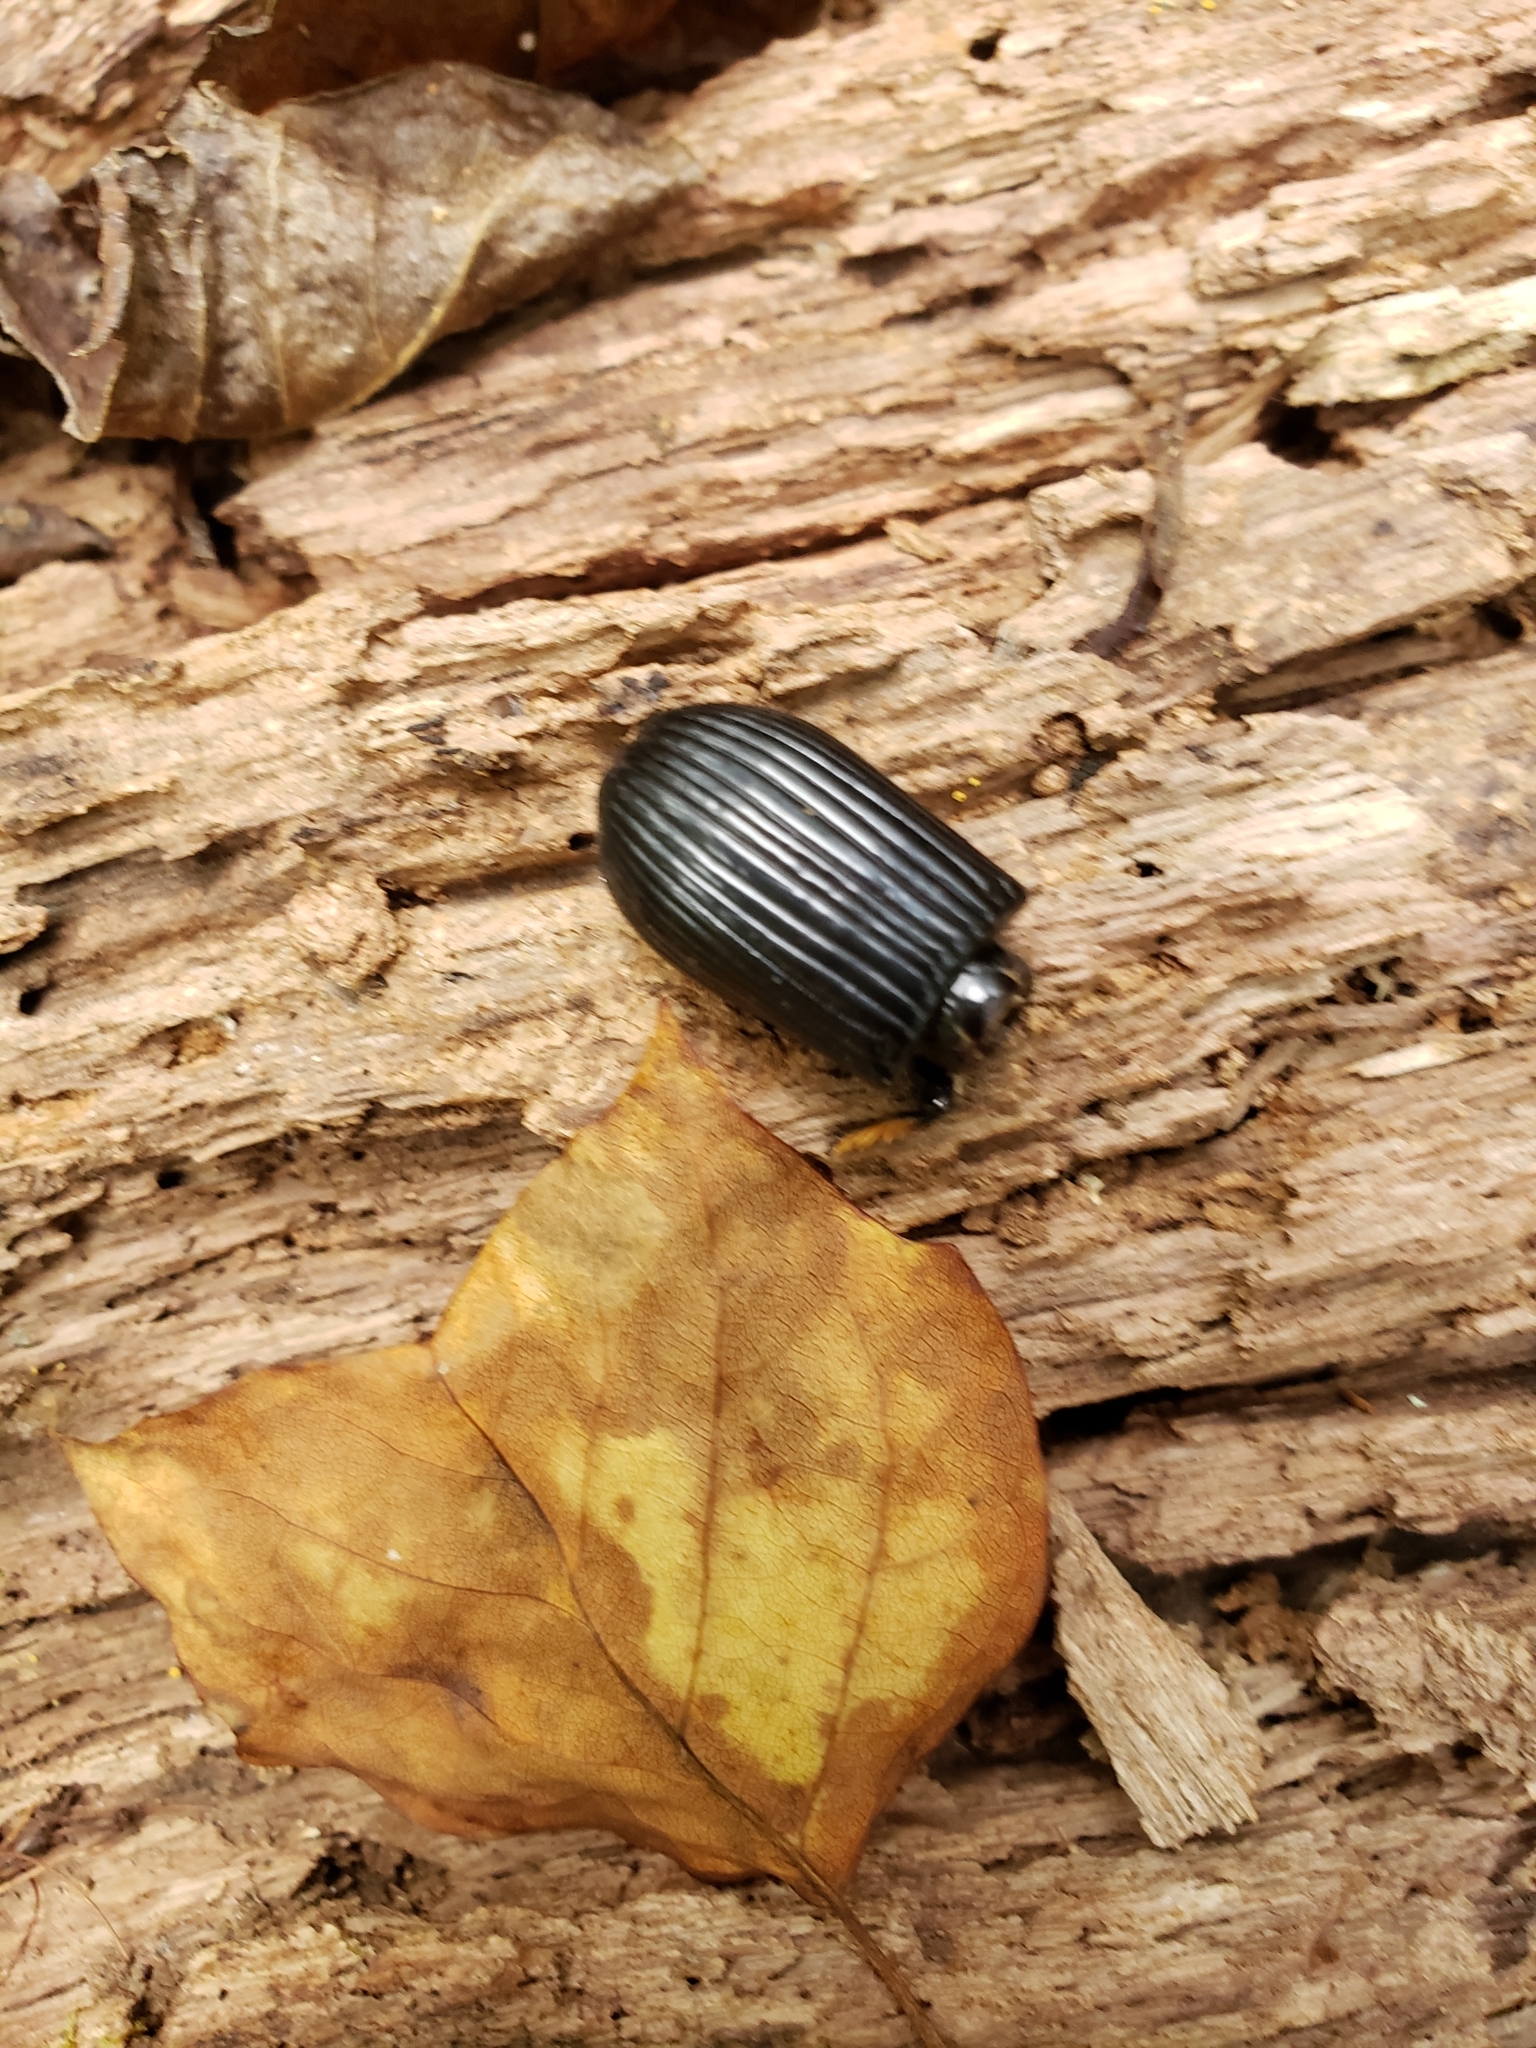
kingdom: Animalia
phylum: Arthropoda
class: Insecta
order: Coleoptera
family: Passalidae
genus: Odontotaenius
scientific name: Odontotaenius disjunctus
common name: Patent leather beetle
